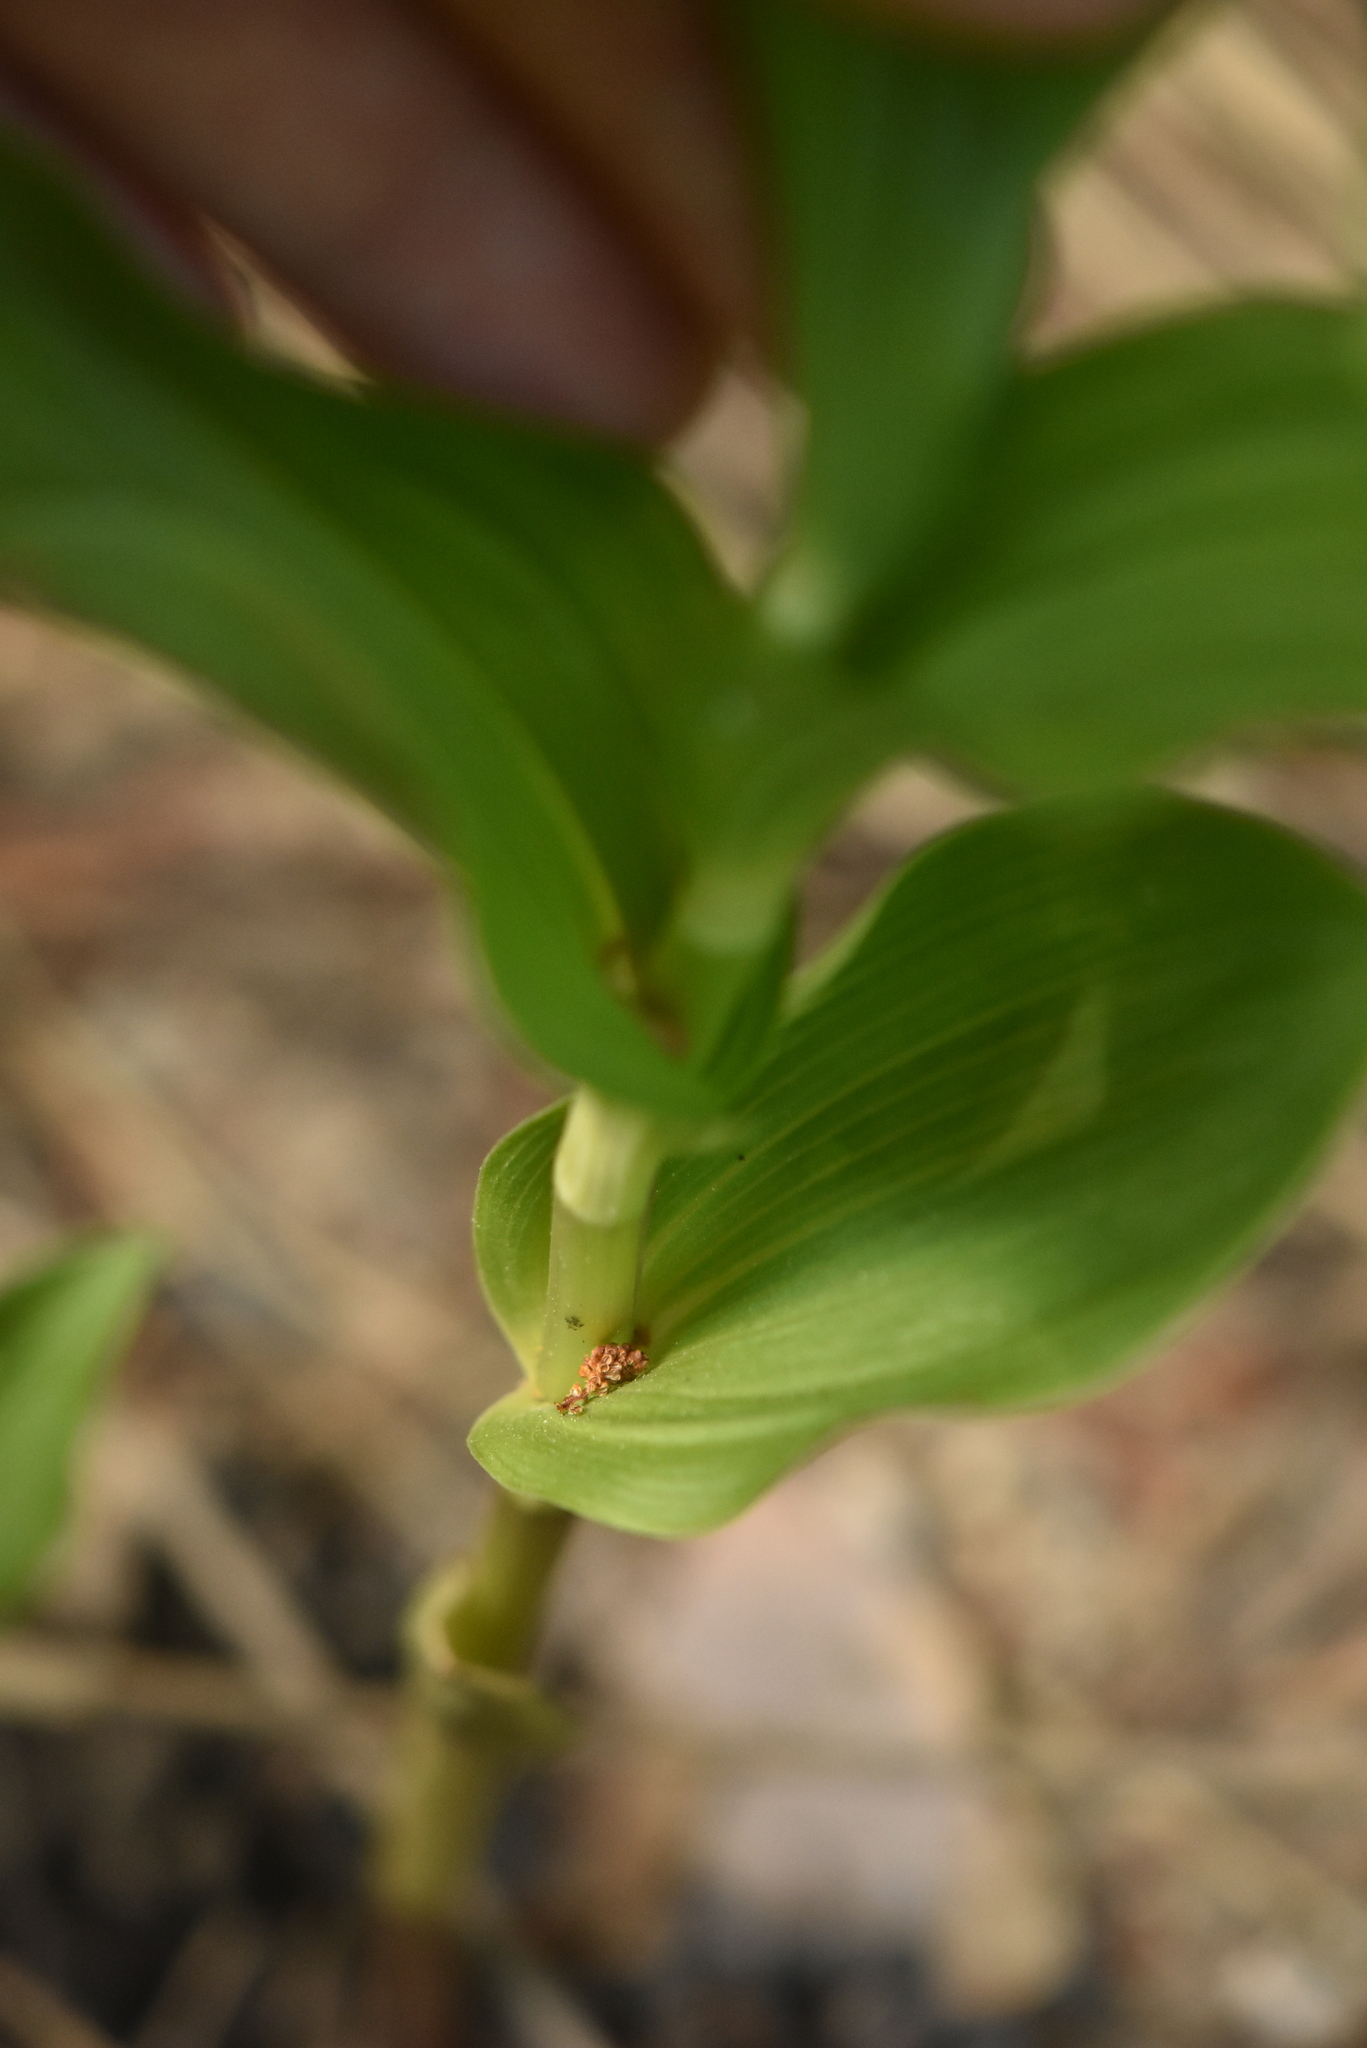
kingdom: Plantae
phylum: Tracheophyta
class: Liliopsida
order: Asparagales
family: Orchidaceae
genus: Epipactis
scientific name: Epipactis helleborine
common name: Broad-leaved helleborine
